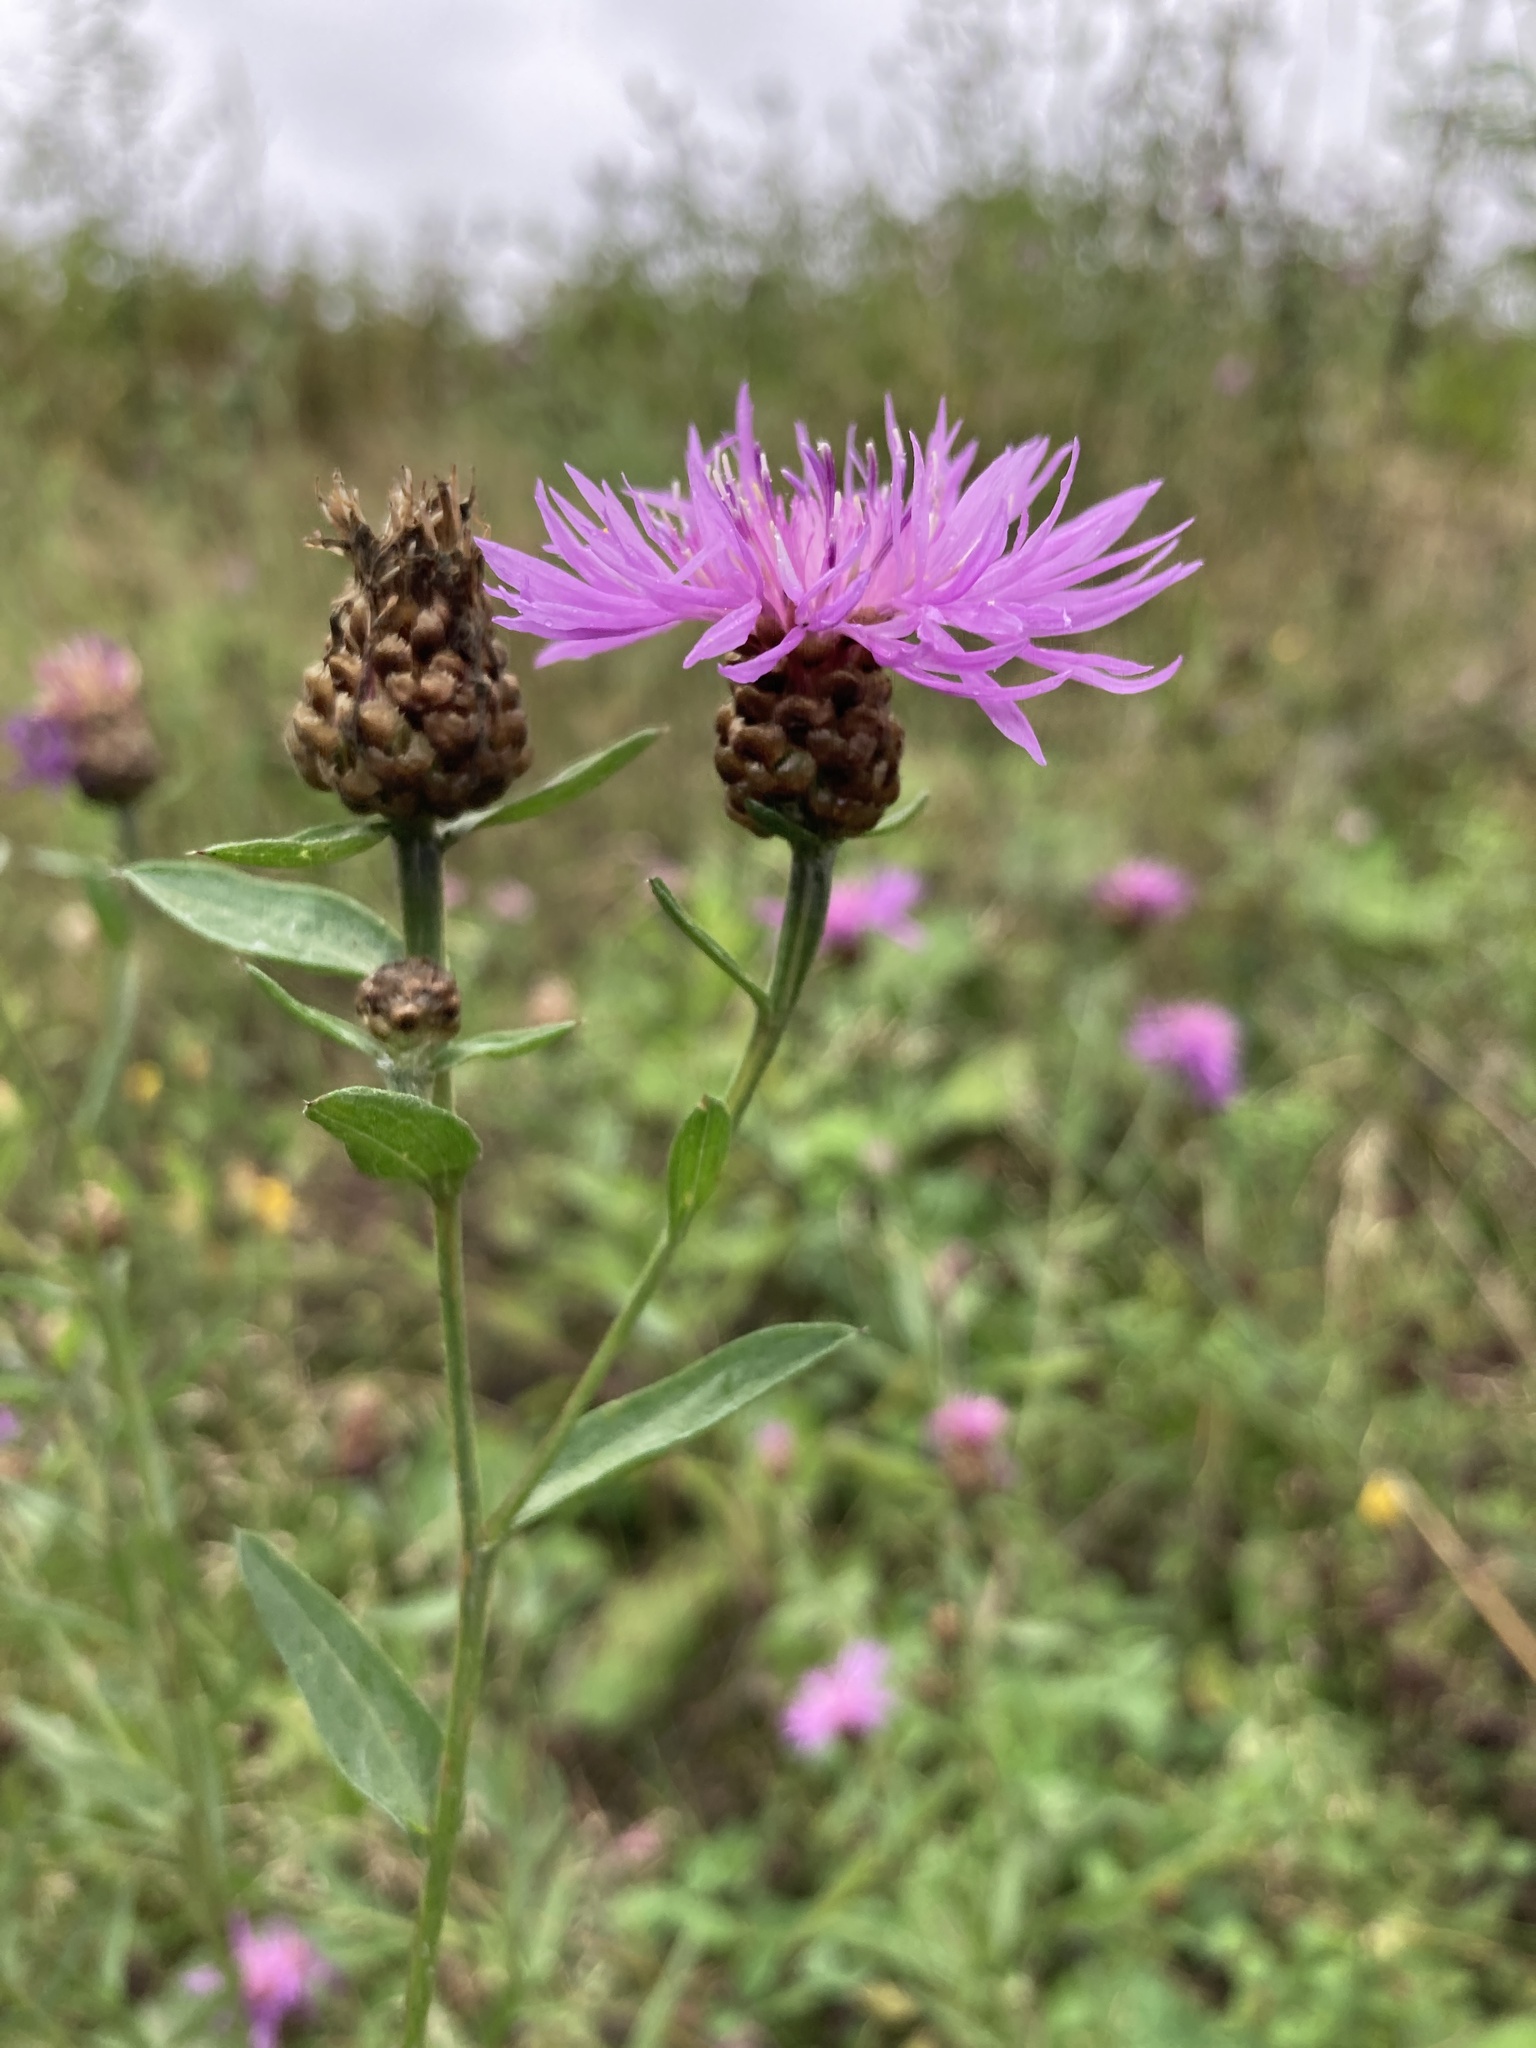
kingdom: Plantae
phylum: Tracheophyta
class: Magnoliopsida
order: Asterales
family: Asteraceae
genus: Centaurea
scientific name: Centaurea jacea
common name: Brown knapweed
